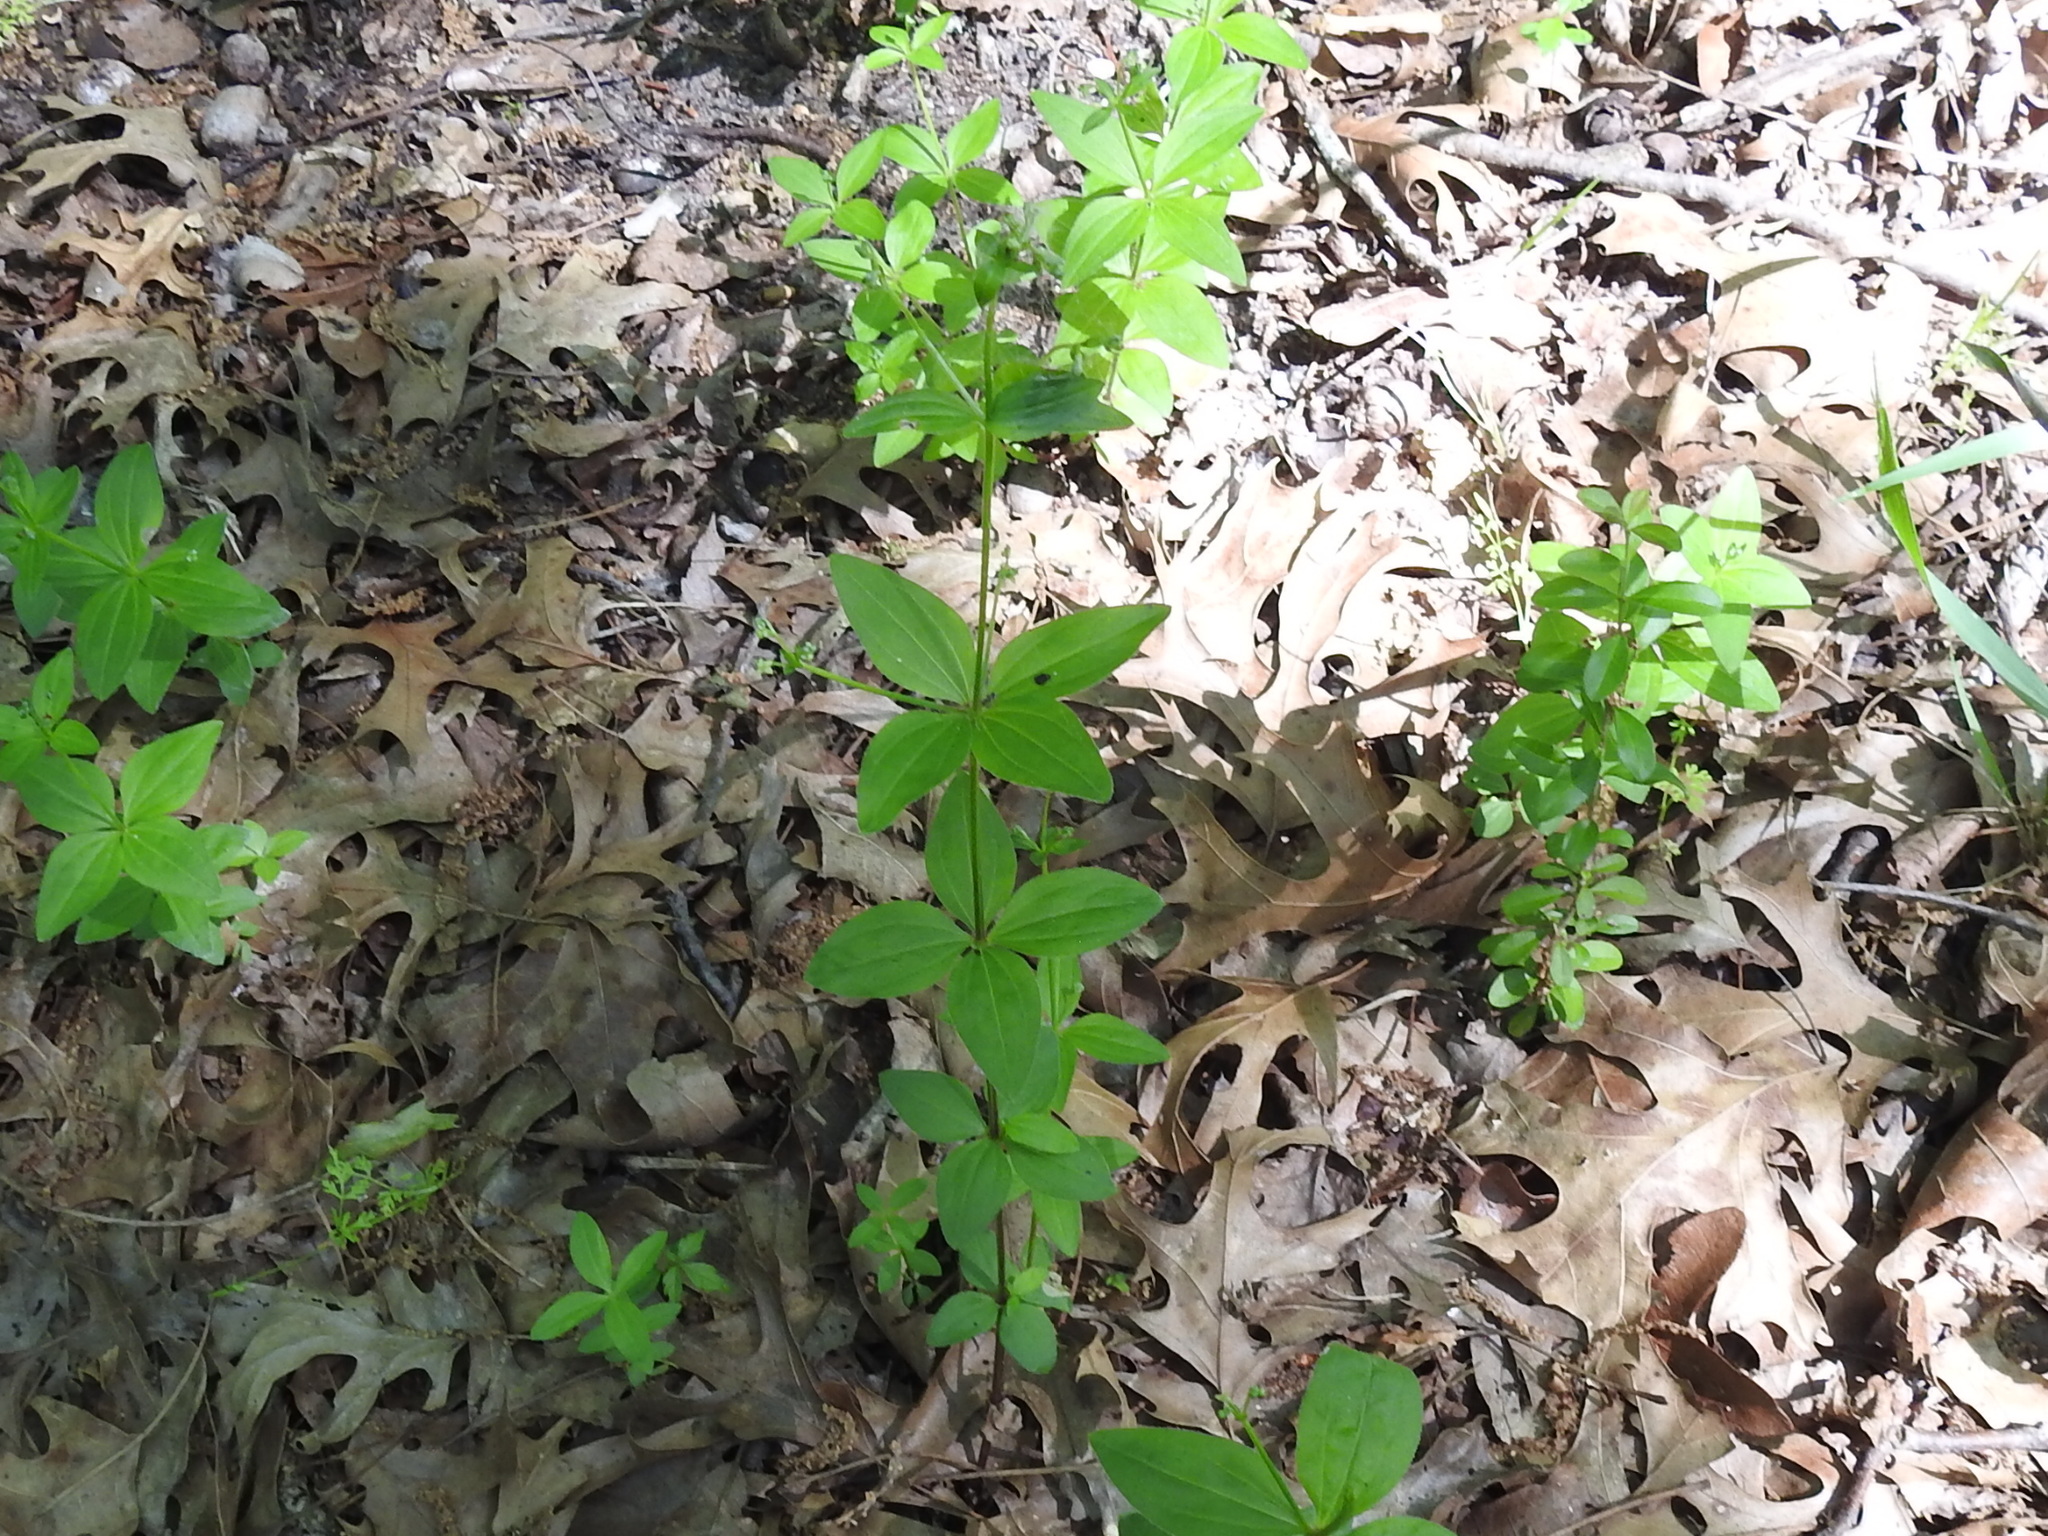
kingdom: Plantae
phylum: Tracheophyta
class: Magnoliopsida
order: Gentianales
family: Rubiaceae
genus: Galium
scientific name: Galium circaezans
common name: Forest bedstraw
